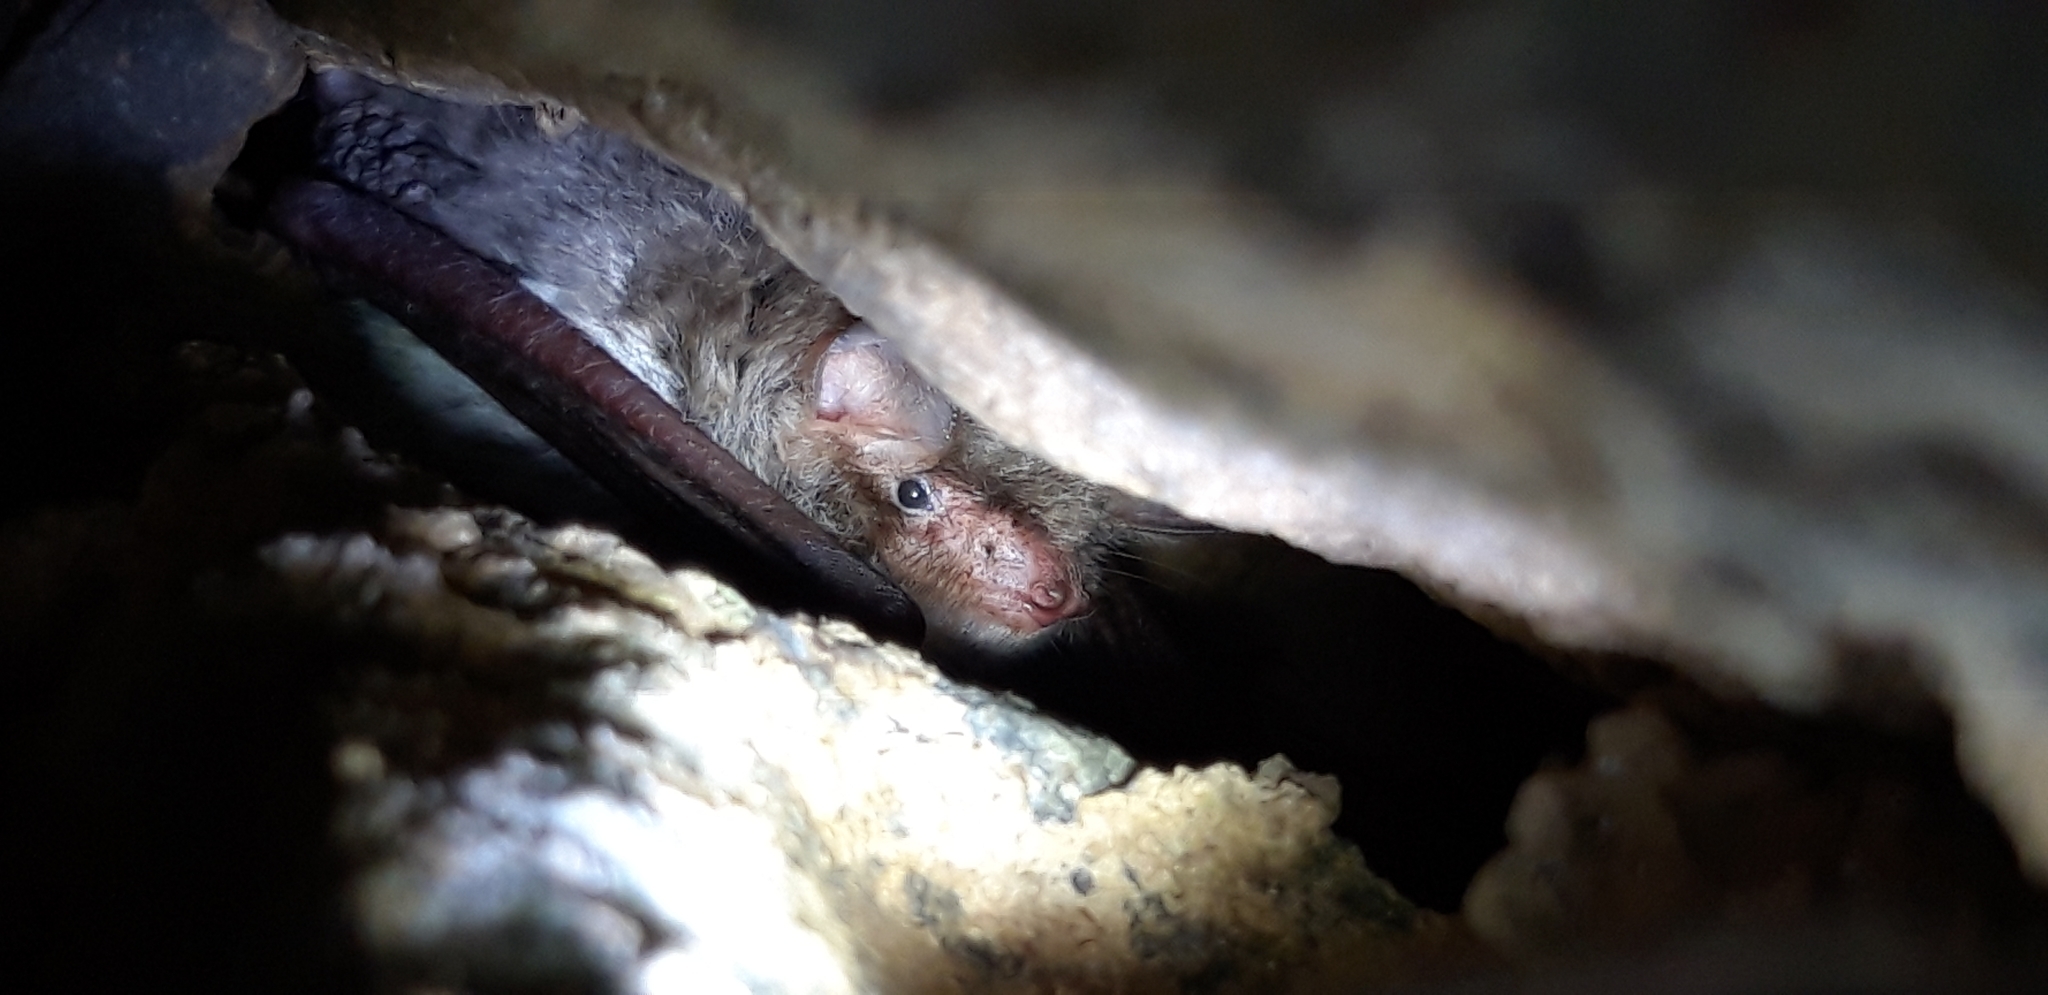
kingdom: Animalia
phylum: Chordata
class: Mammalia
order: Chiroptera
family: Vespertilionidae
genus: Myotis
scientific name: Myotis nattereri
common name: Natterer's bat
